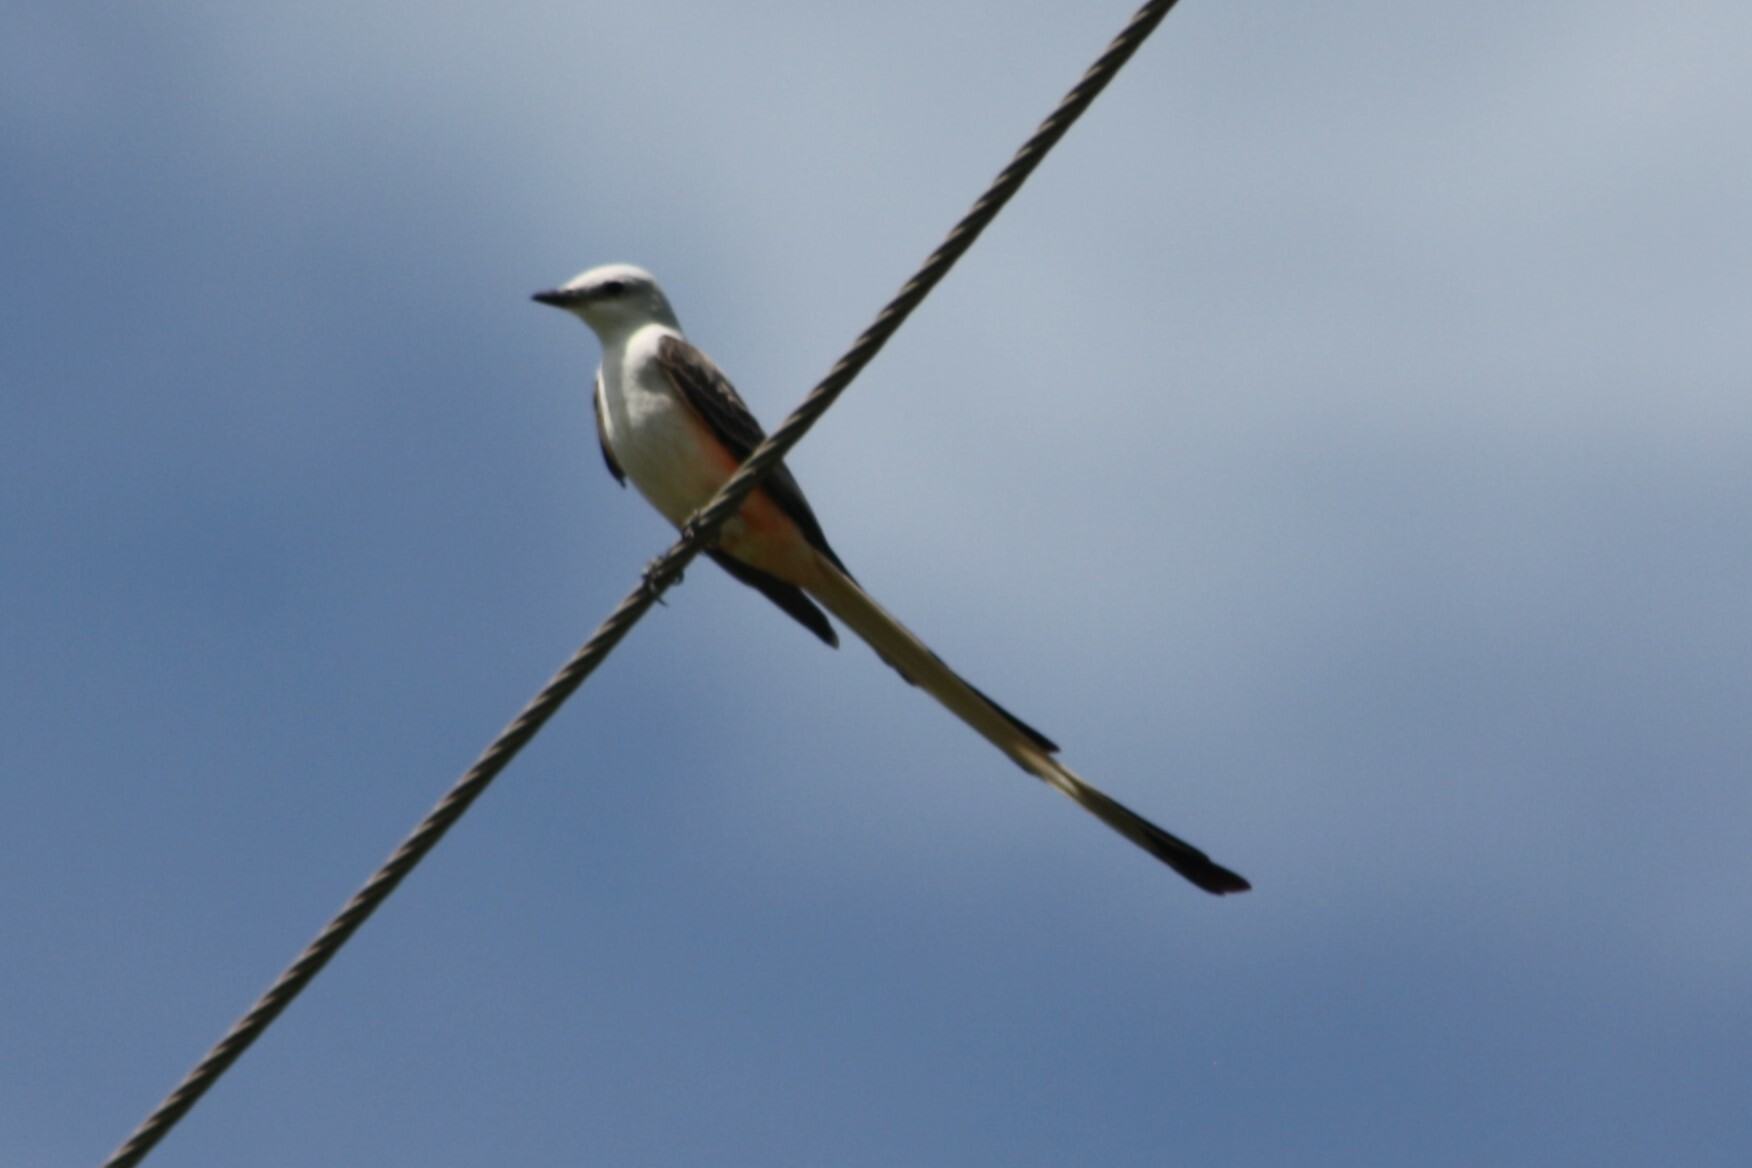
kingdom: Animalia
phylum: Chordata
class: Aves
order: Passeriformes
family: Tyrannidae
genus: Tyrannus
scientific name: Tyrannus forficatus
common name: Scissor-tailed flycatcher
